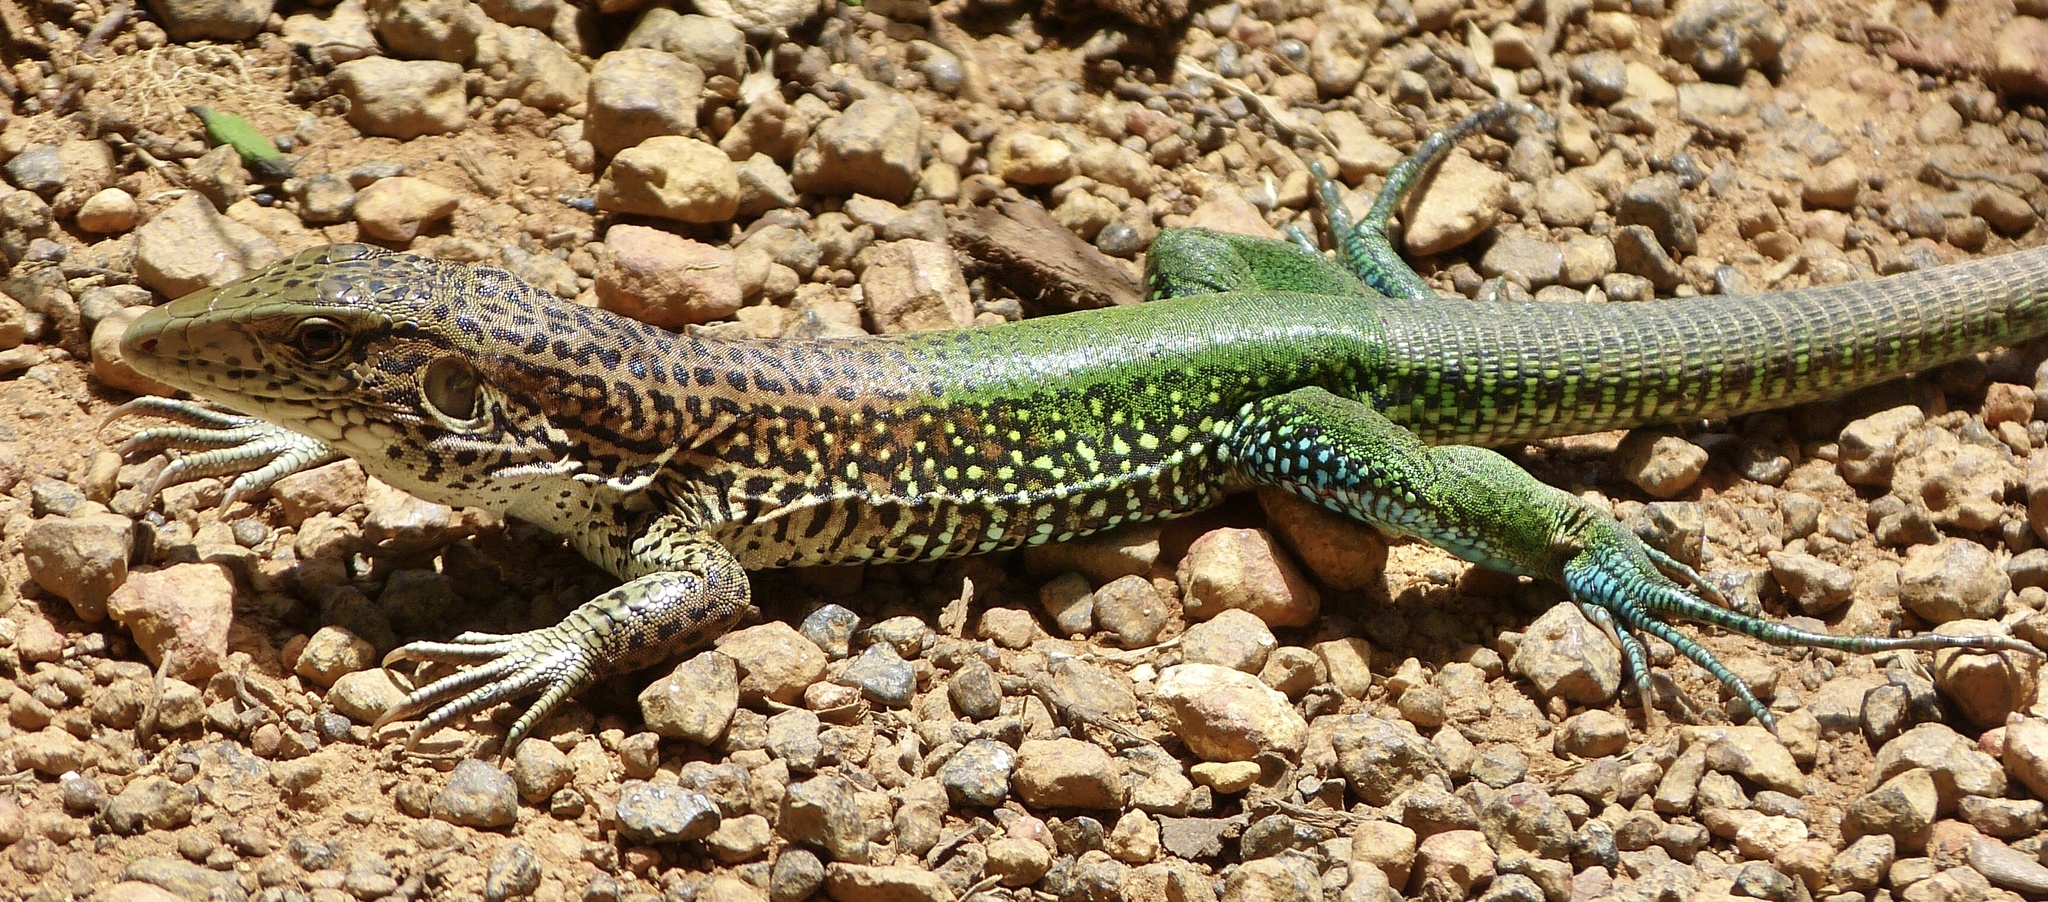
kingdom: Animalia
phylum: Chordata
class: Squamata
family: Teiidae
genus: Ameiva
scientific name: Ameiva ameiva
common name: Giant ameiva
